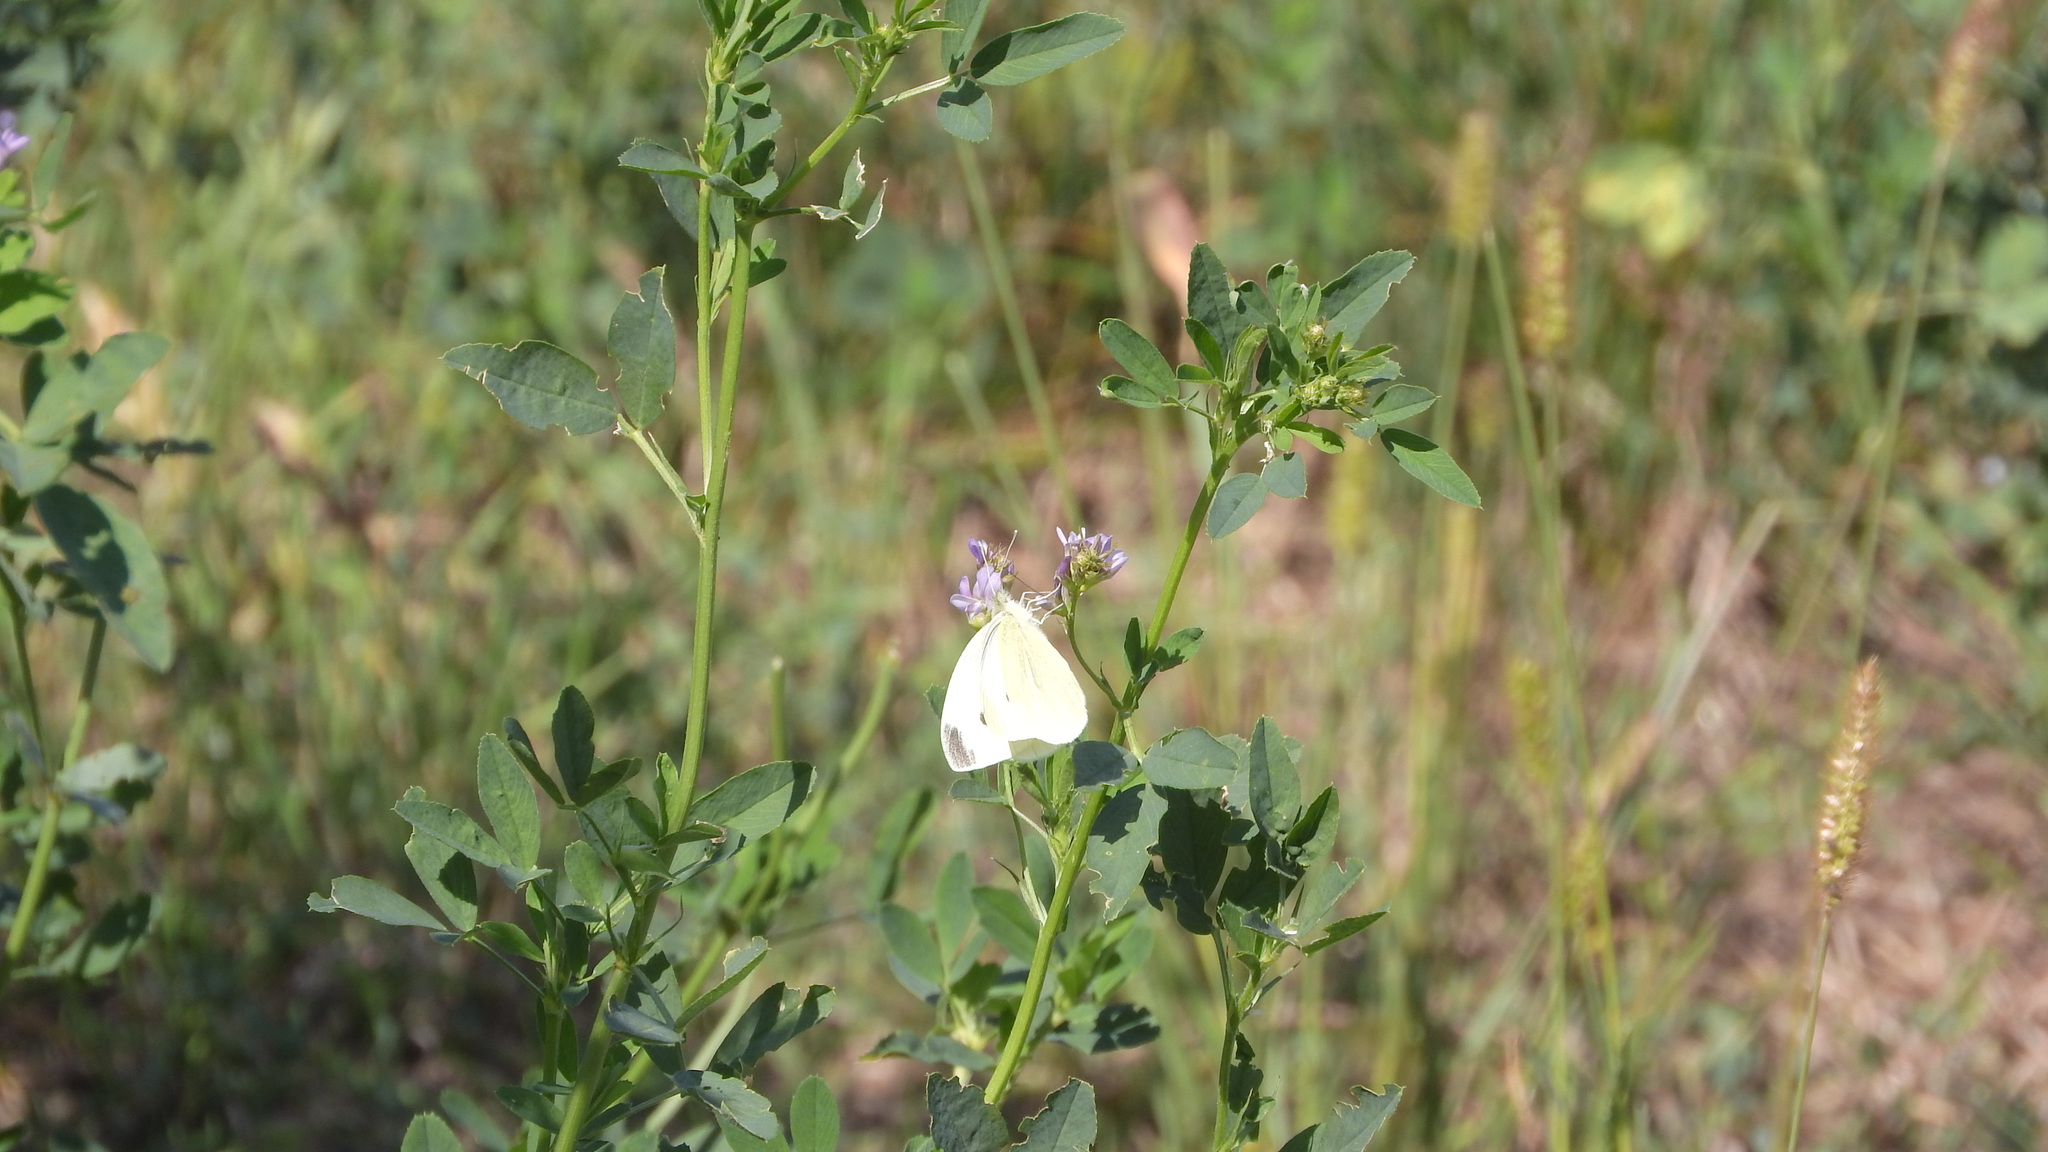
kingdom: Animalia
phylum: Arthropoda
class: Insecta
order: Lepidoptera
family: Pieridae
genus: Pieris
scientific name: Pieris rapae
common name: Small white
